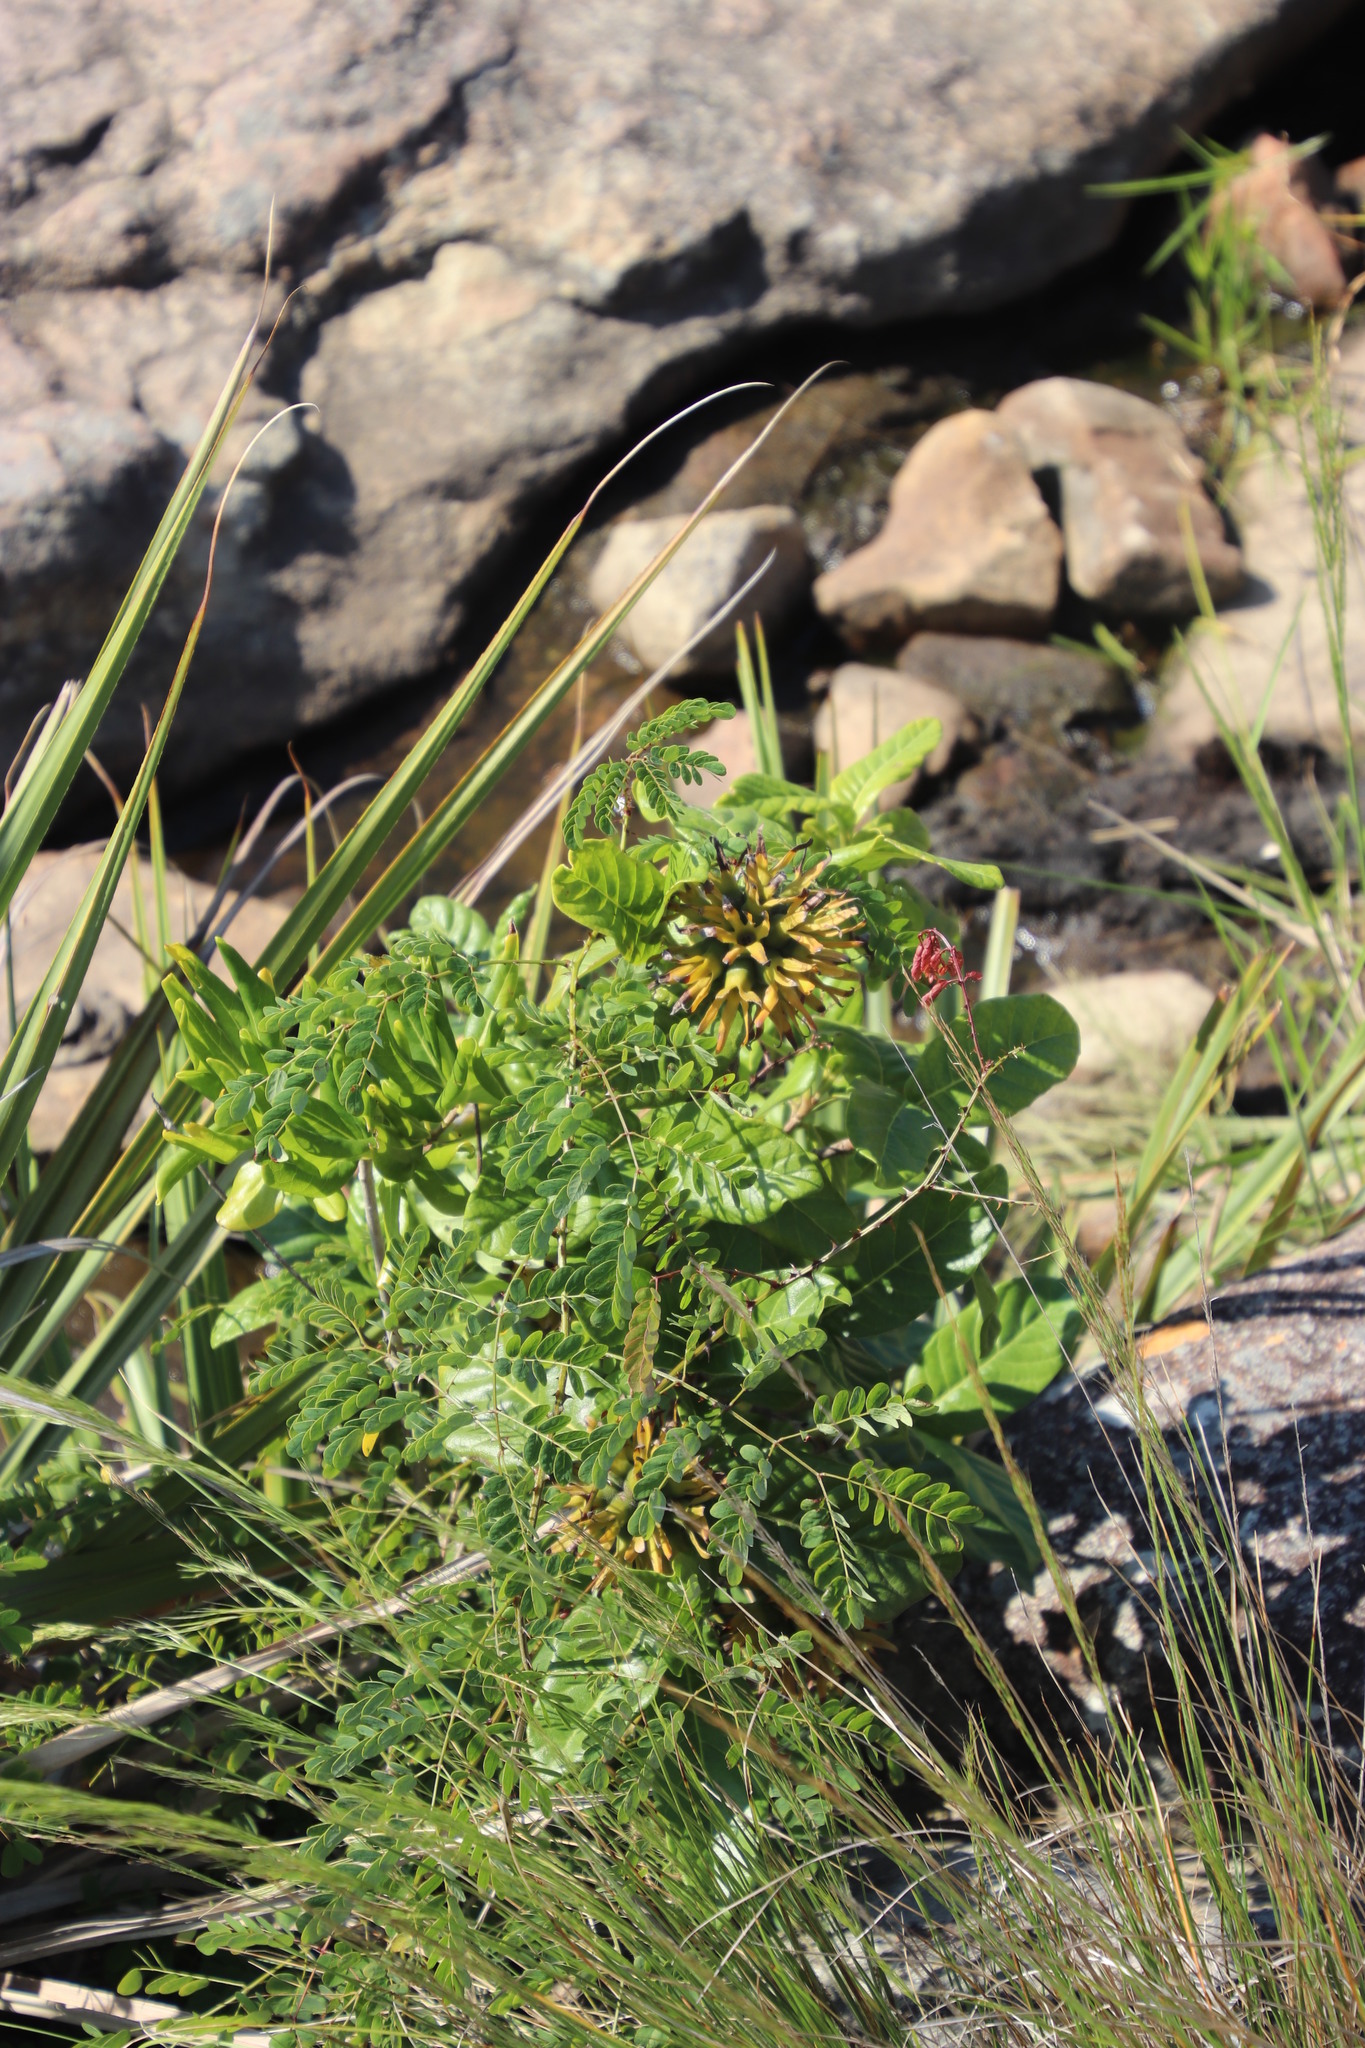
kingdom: Plantae
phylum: Tracheophyta
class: Magnoliopsida
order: Gentianales
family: Rubiaceae
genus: Burchellia
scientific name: Burchellia bubalina
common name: Wild pomegranate
